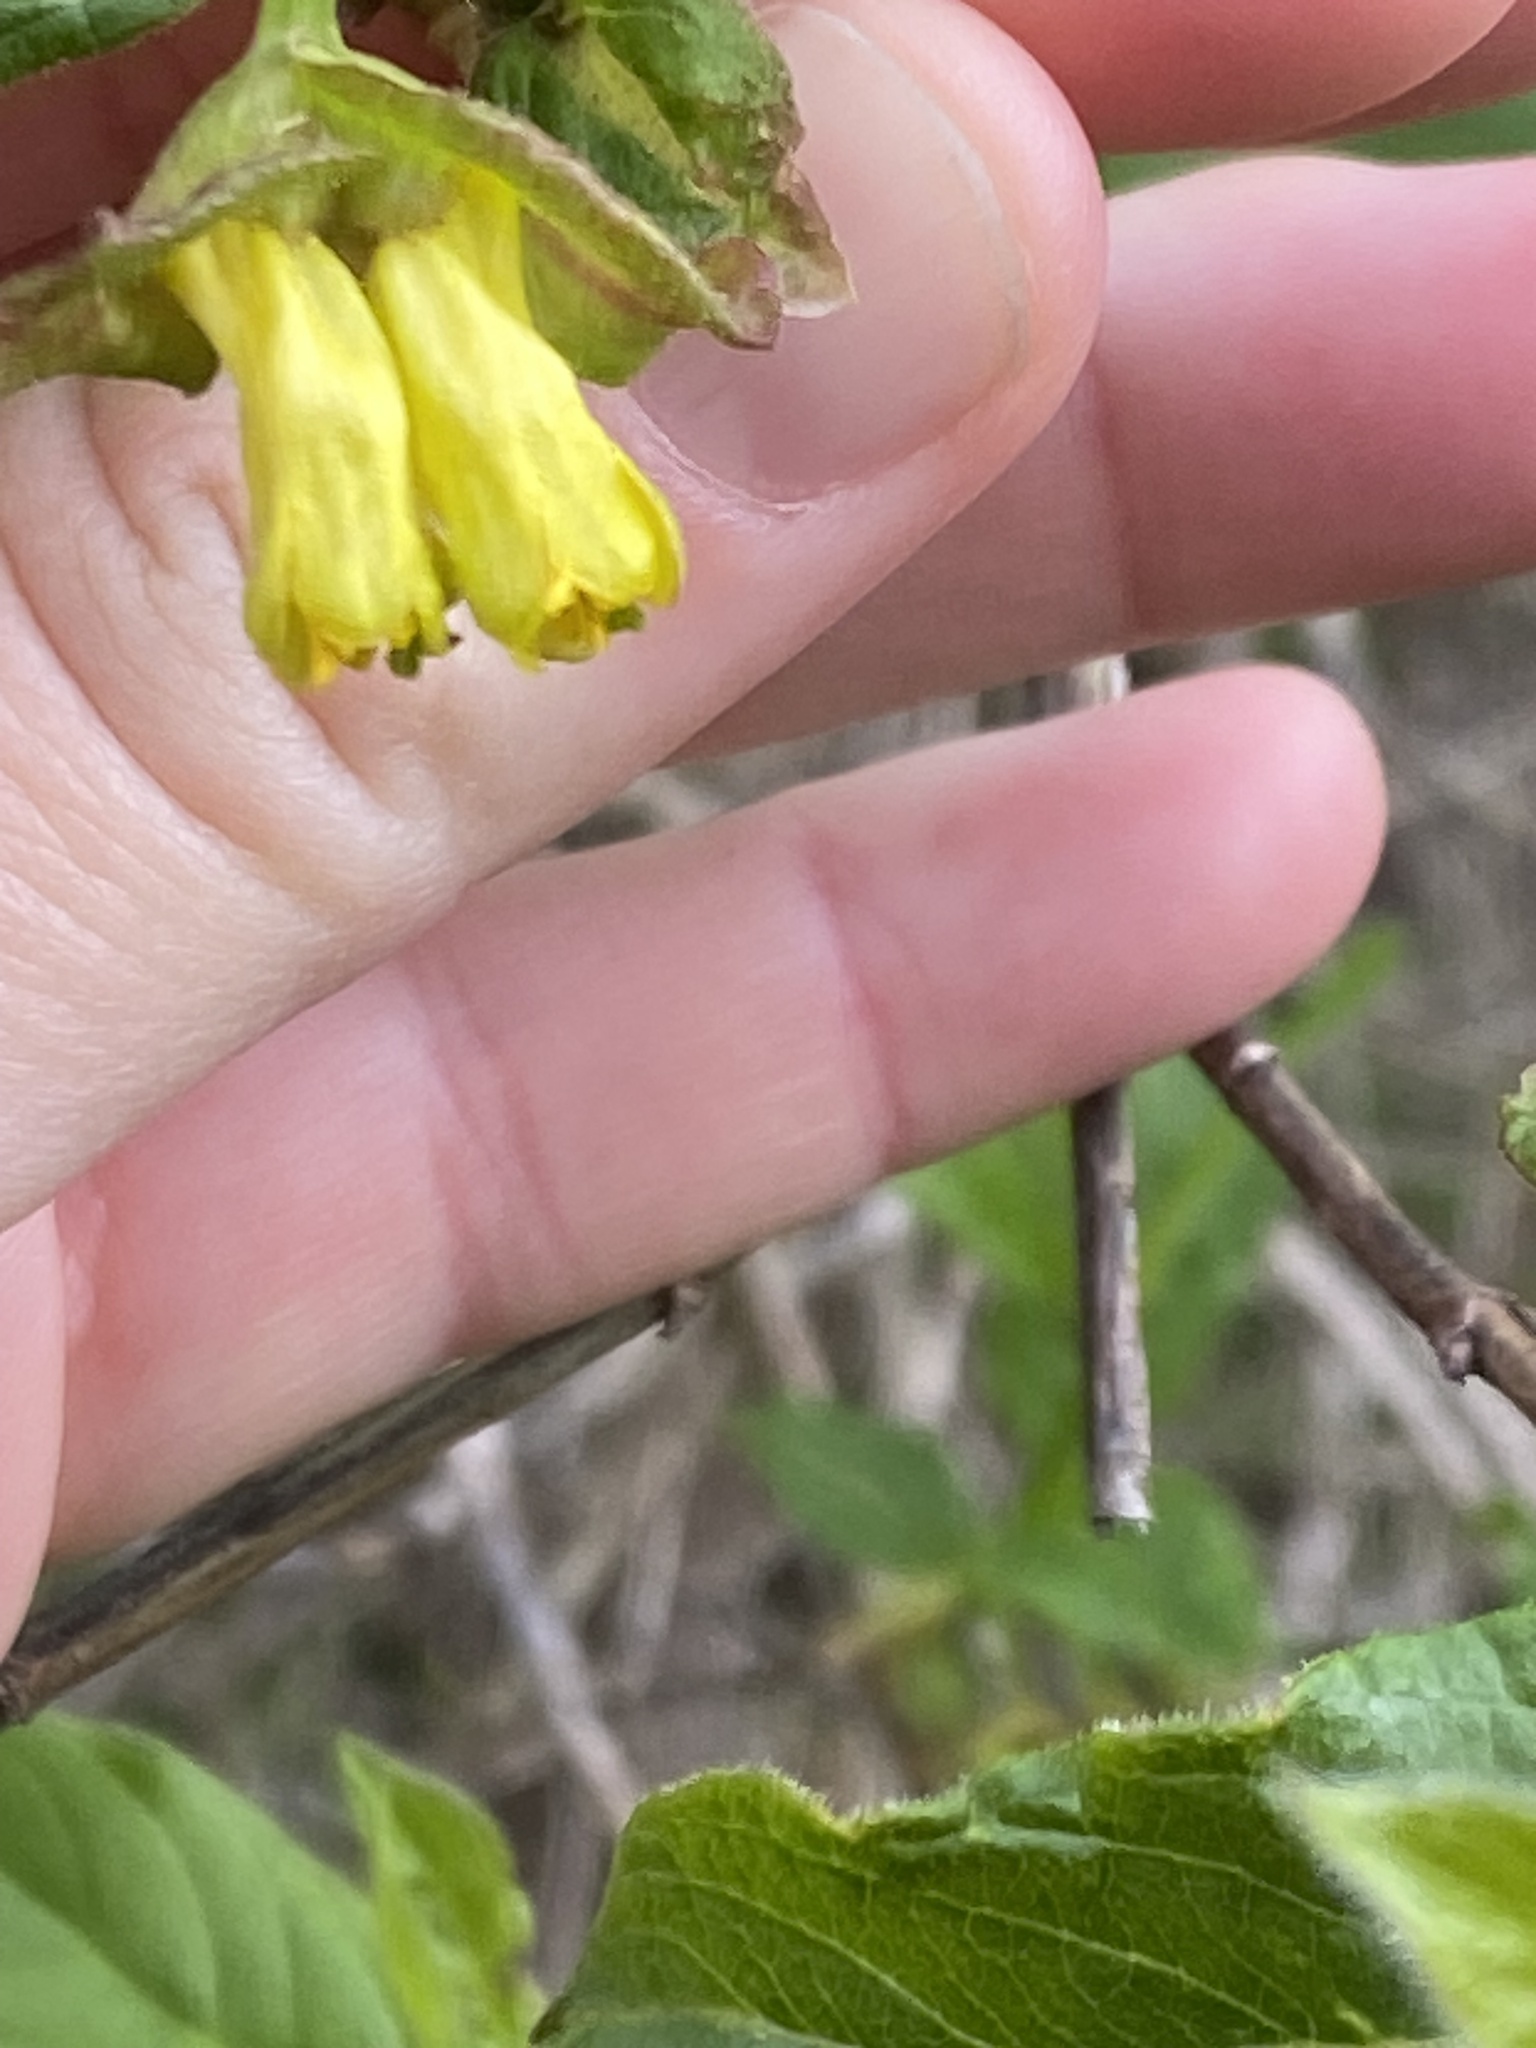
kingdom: Plantae
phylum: Tracheophyta
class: Magnoliopsida
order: Dipsacales
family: Caprifoliaceae
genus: Lonicera
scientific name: Lonicera involucrata
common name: Californian honeysuckle
